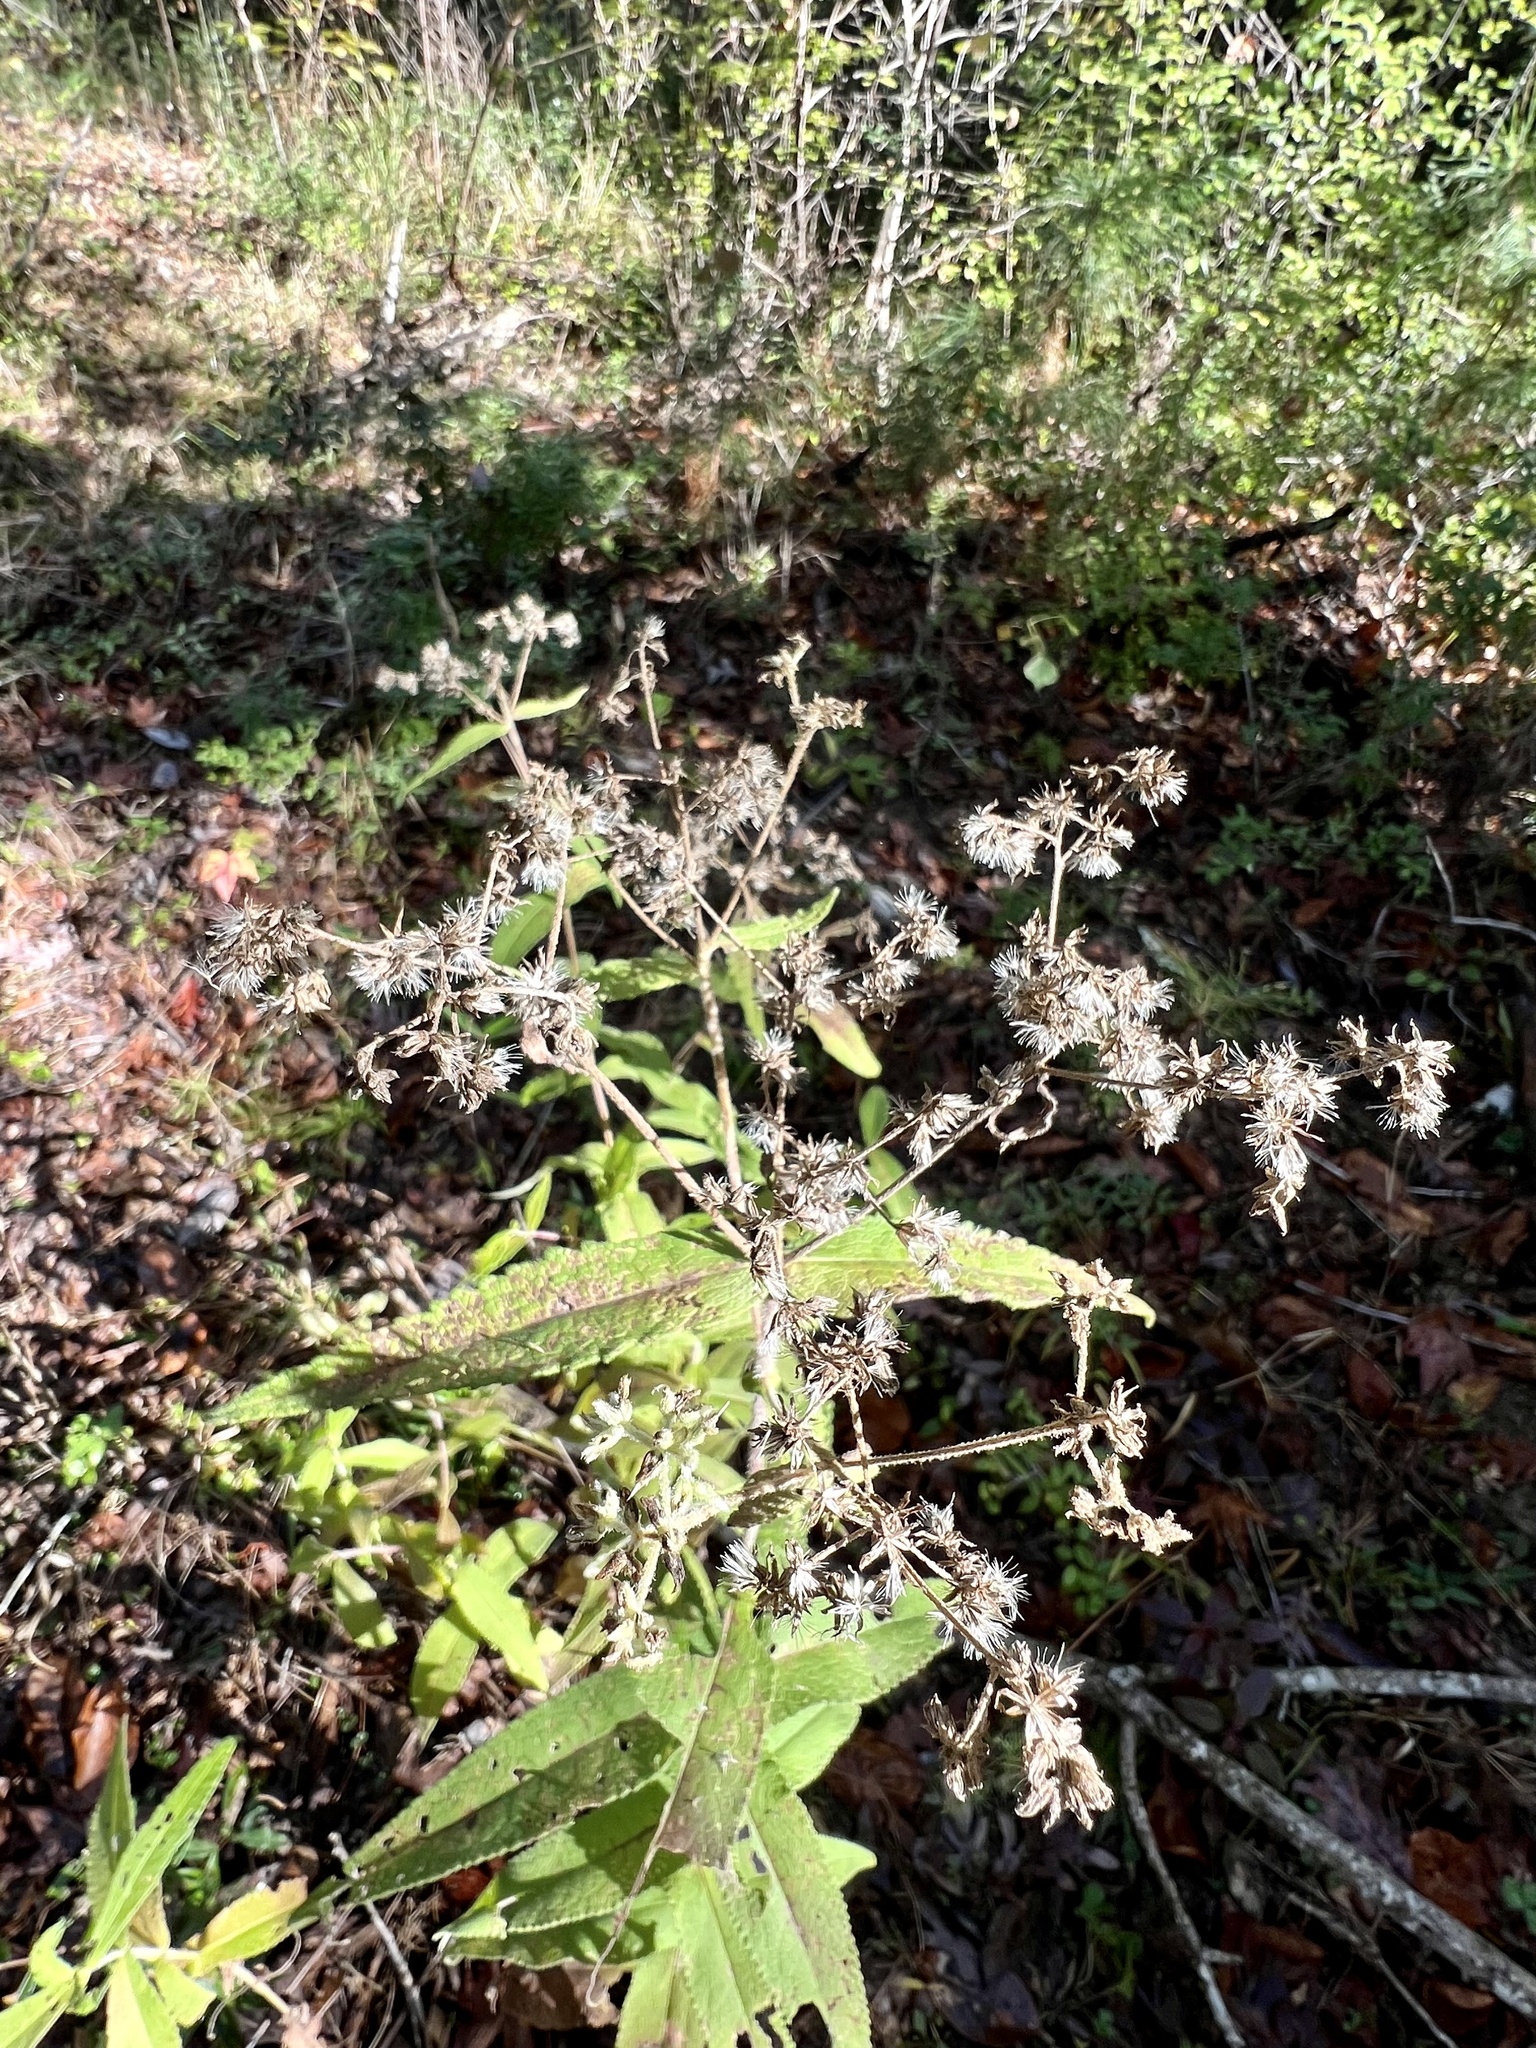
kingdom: Plantae
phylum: Tracheophyta
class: Magnoliopsida
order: Asterales
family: Asteraceae
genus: Eupatorium
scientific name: Eupatorium perfoliatum
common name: Boneset
